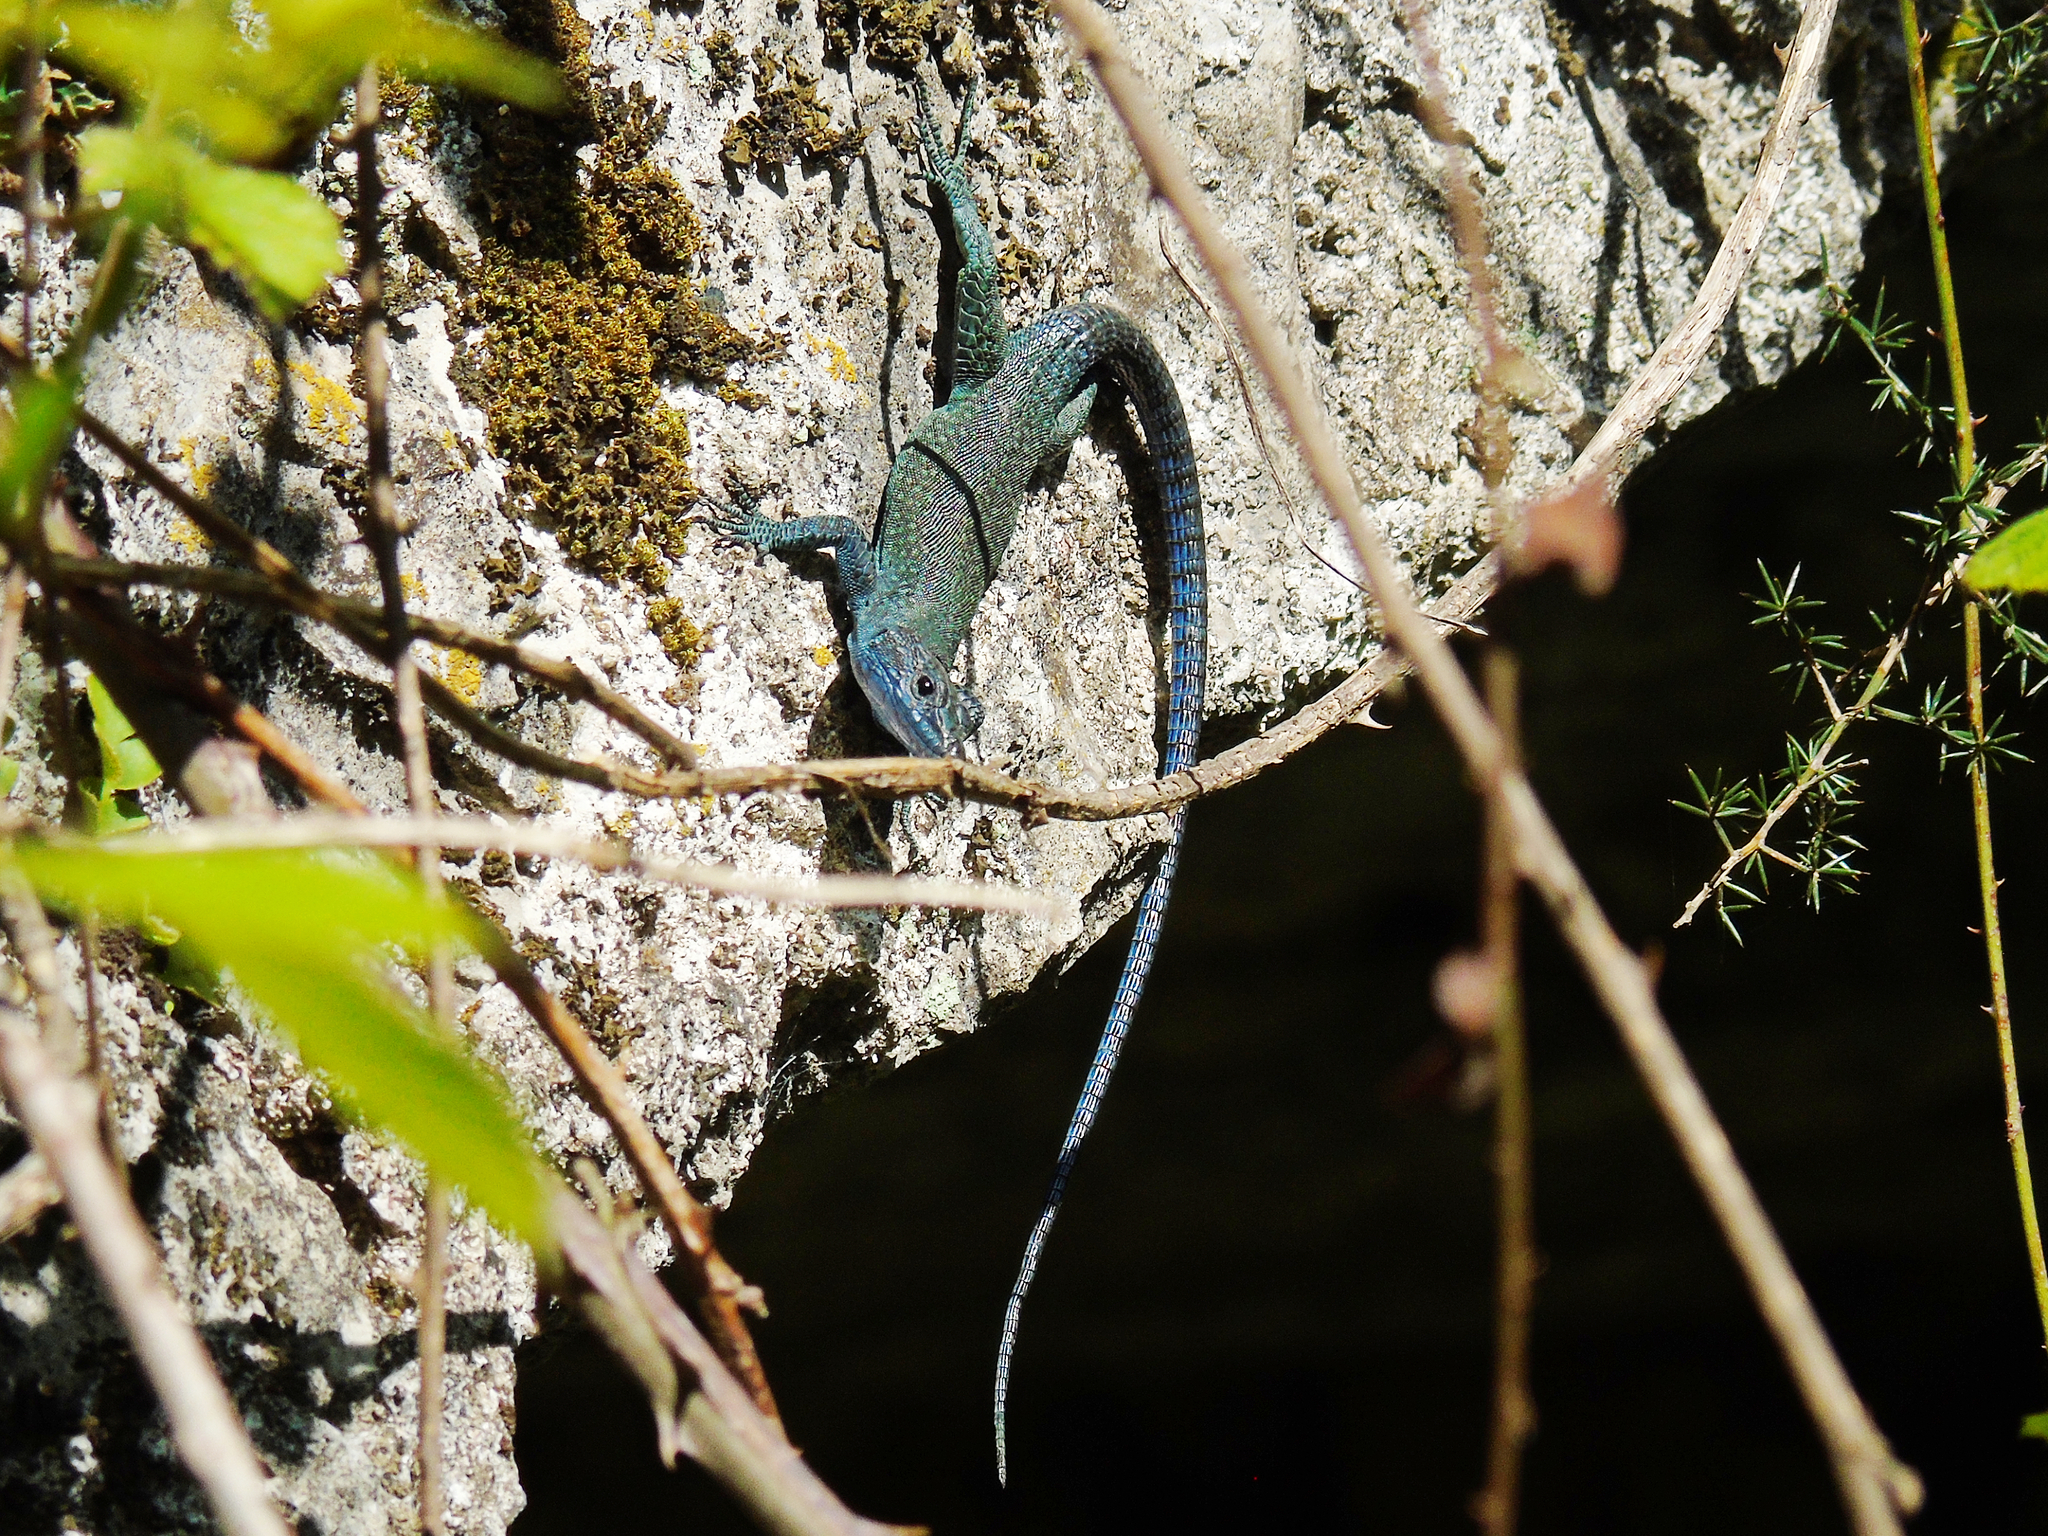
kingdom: Animalia
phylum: Chordata
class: Squamata
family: Lacertidae
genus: Dalmatolacerta
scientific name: Dalmatolacerta oxycephala
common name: Sharp-snouted rock lizard
